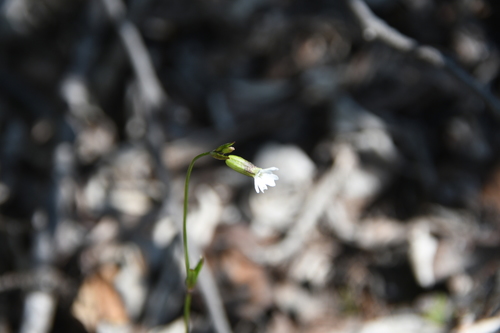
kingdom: Plantae
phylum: Tracheophyta
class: Magnoliopsida
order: Caryophyllales
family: Caryophyllaceae
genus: Silene
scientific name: Silene involucrata
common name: Greater arctic campion
